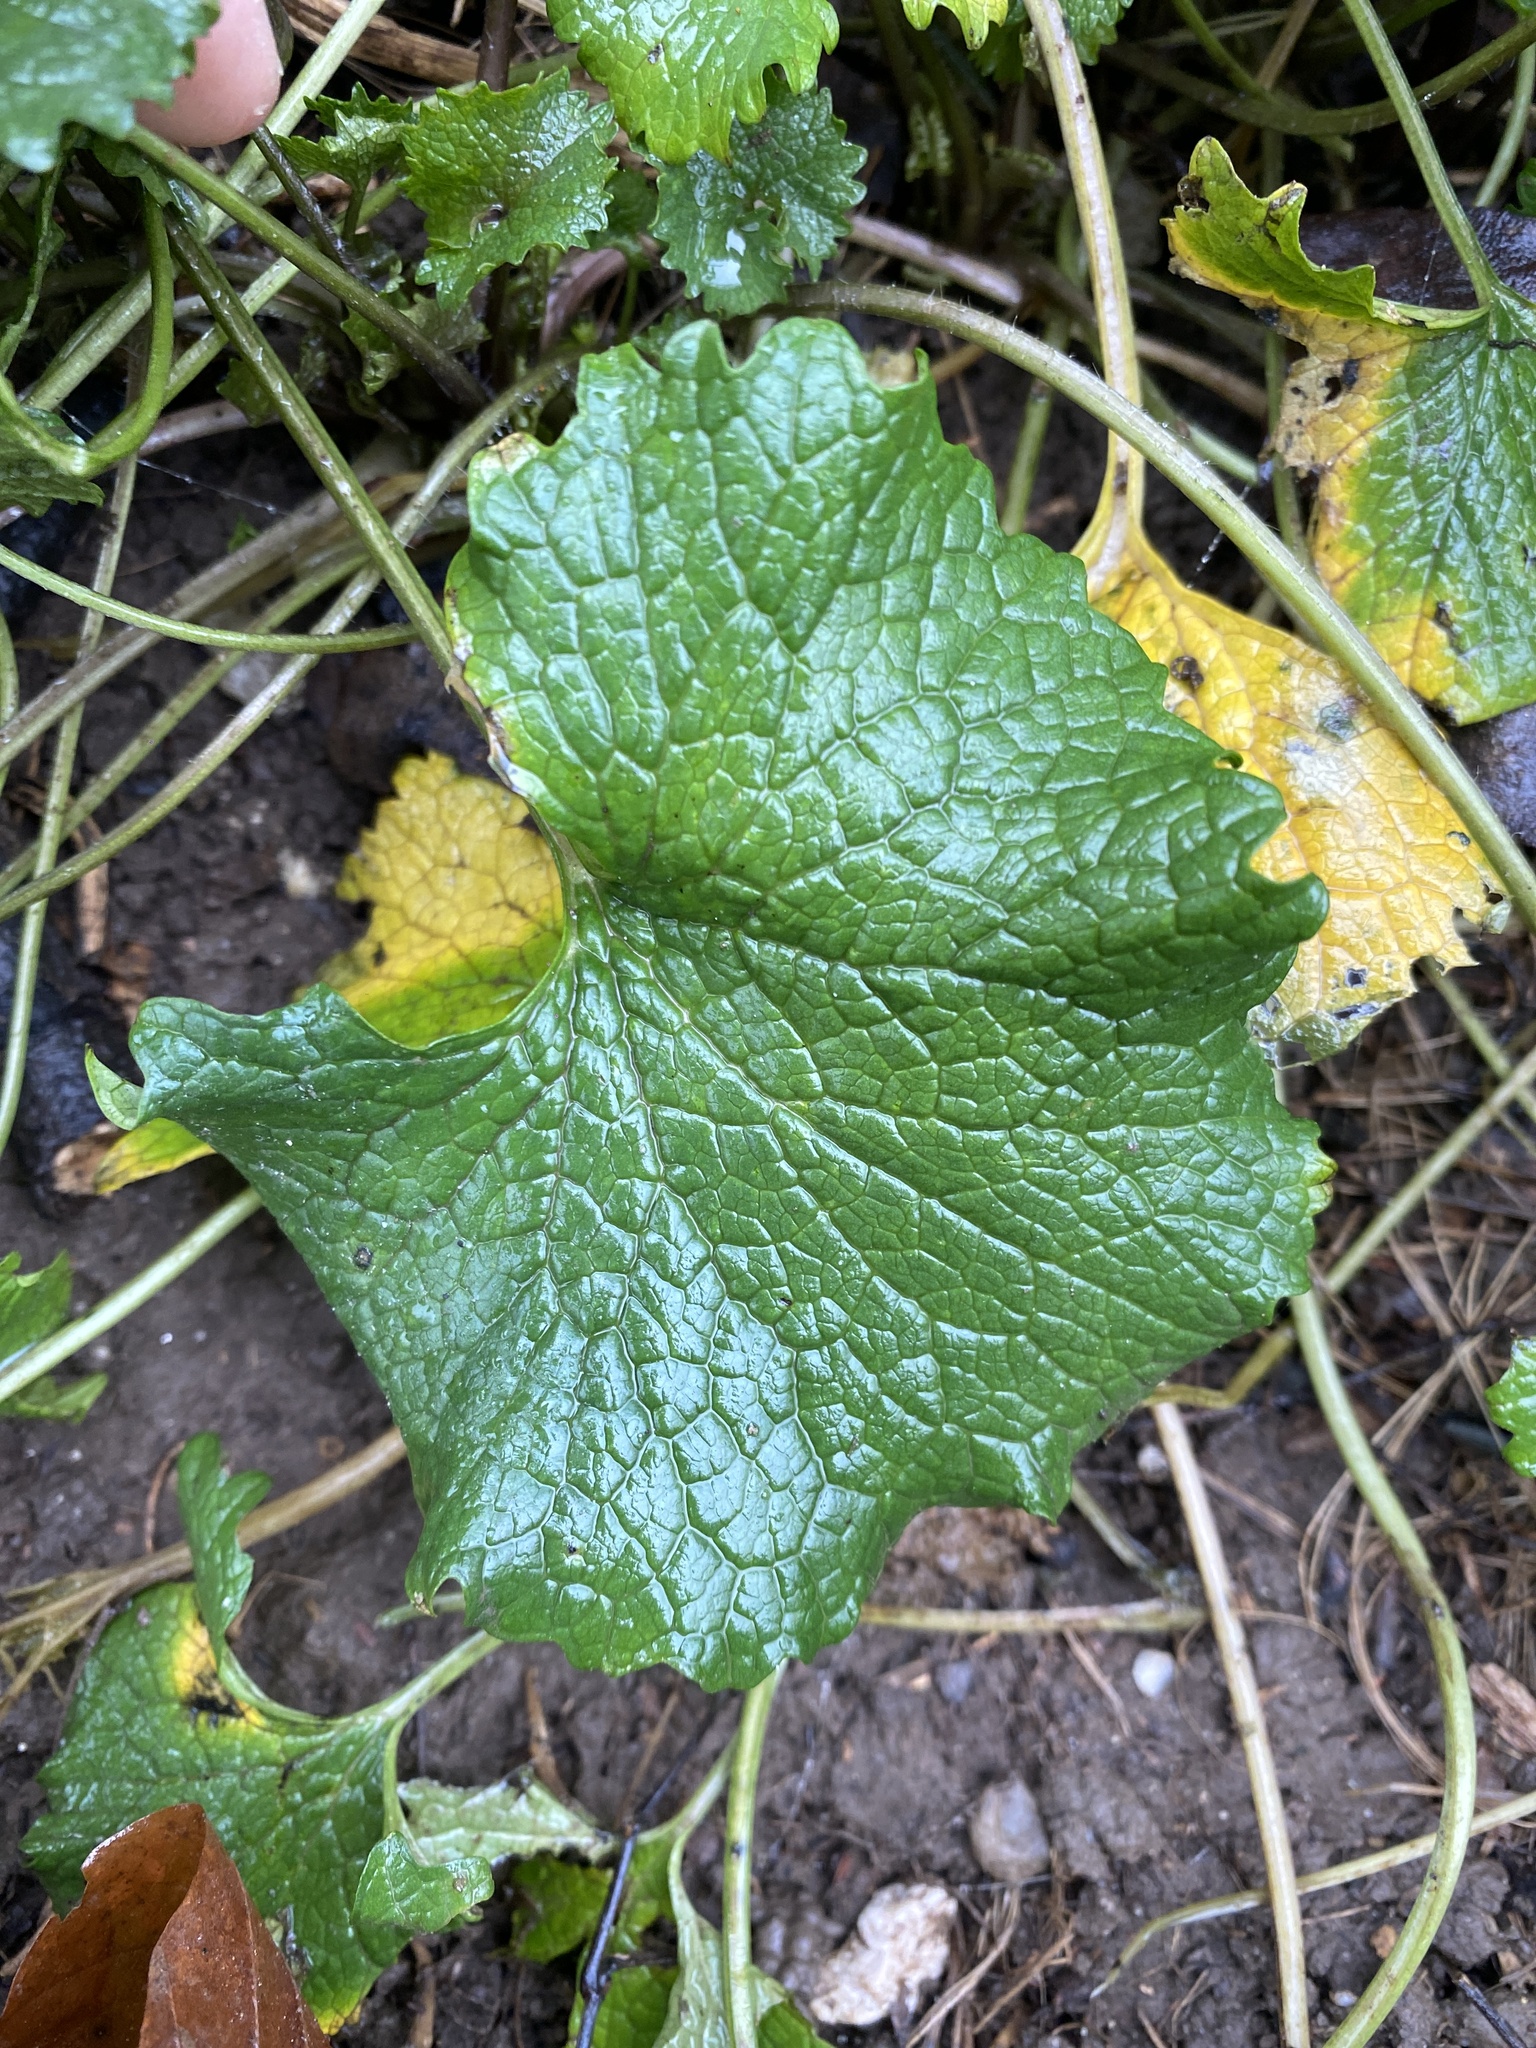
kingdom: Plantae
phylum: Tracheophyta
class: Magnoliopsida
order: Brassicales
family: Brassicaceae
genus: Alliaria
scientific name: Alliaria petiolata
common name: Garlic mustard
